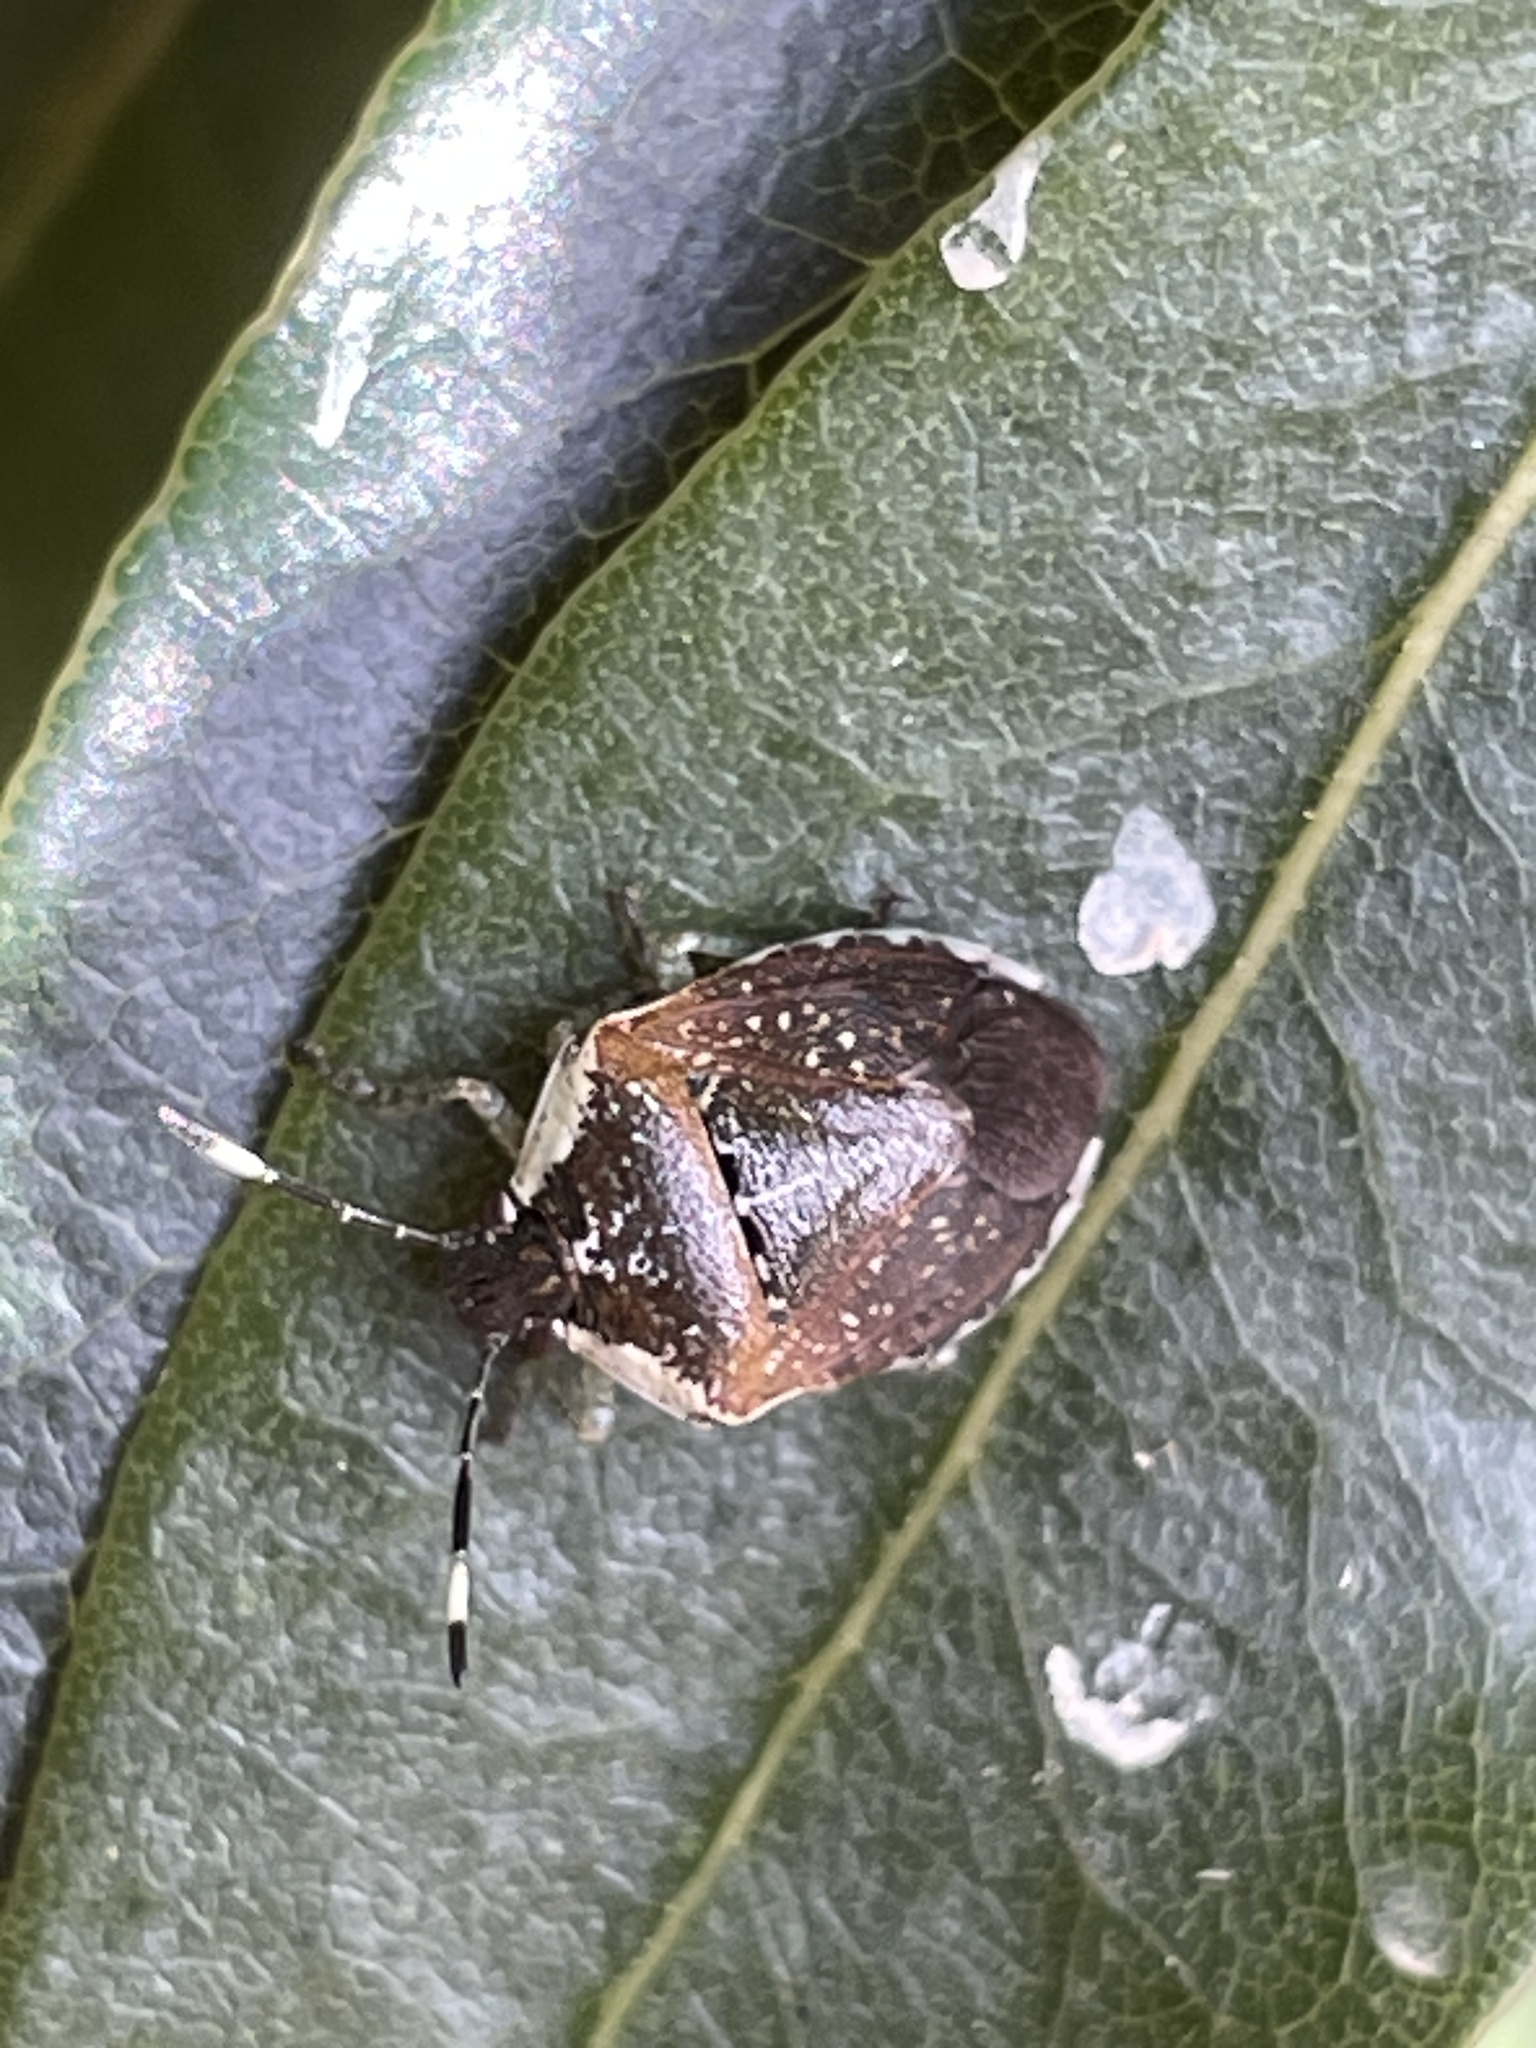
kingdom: Animalia
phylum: Arthropoda
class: Insecta
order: Hemiptera
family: Pentatomidae
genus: Monteithiella
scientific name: Monteithiella
